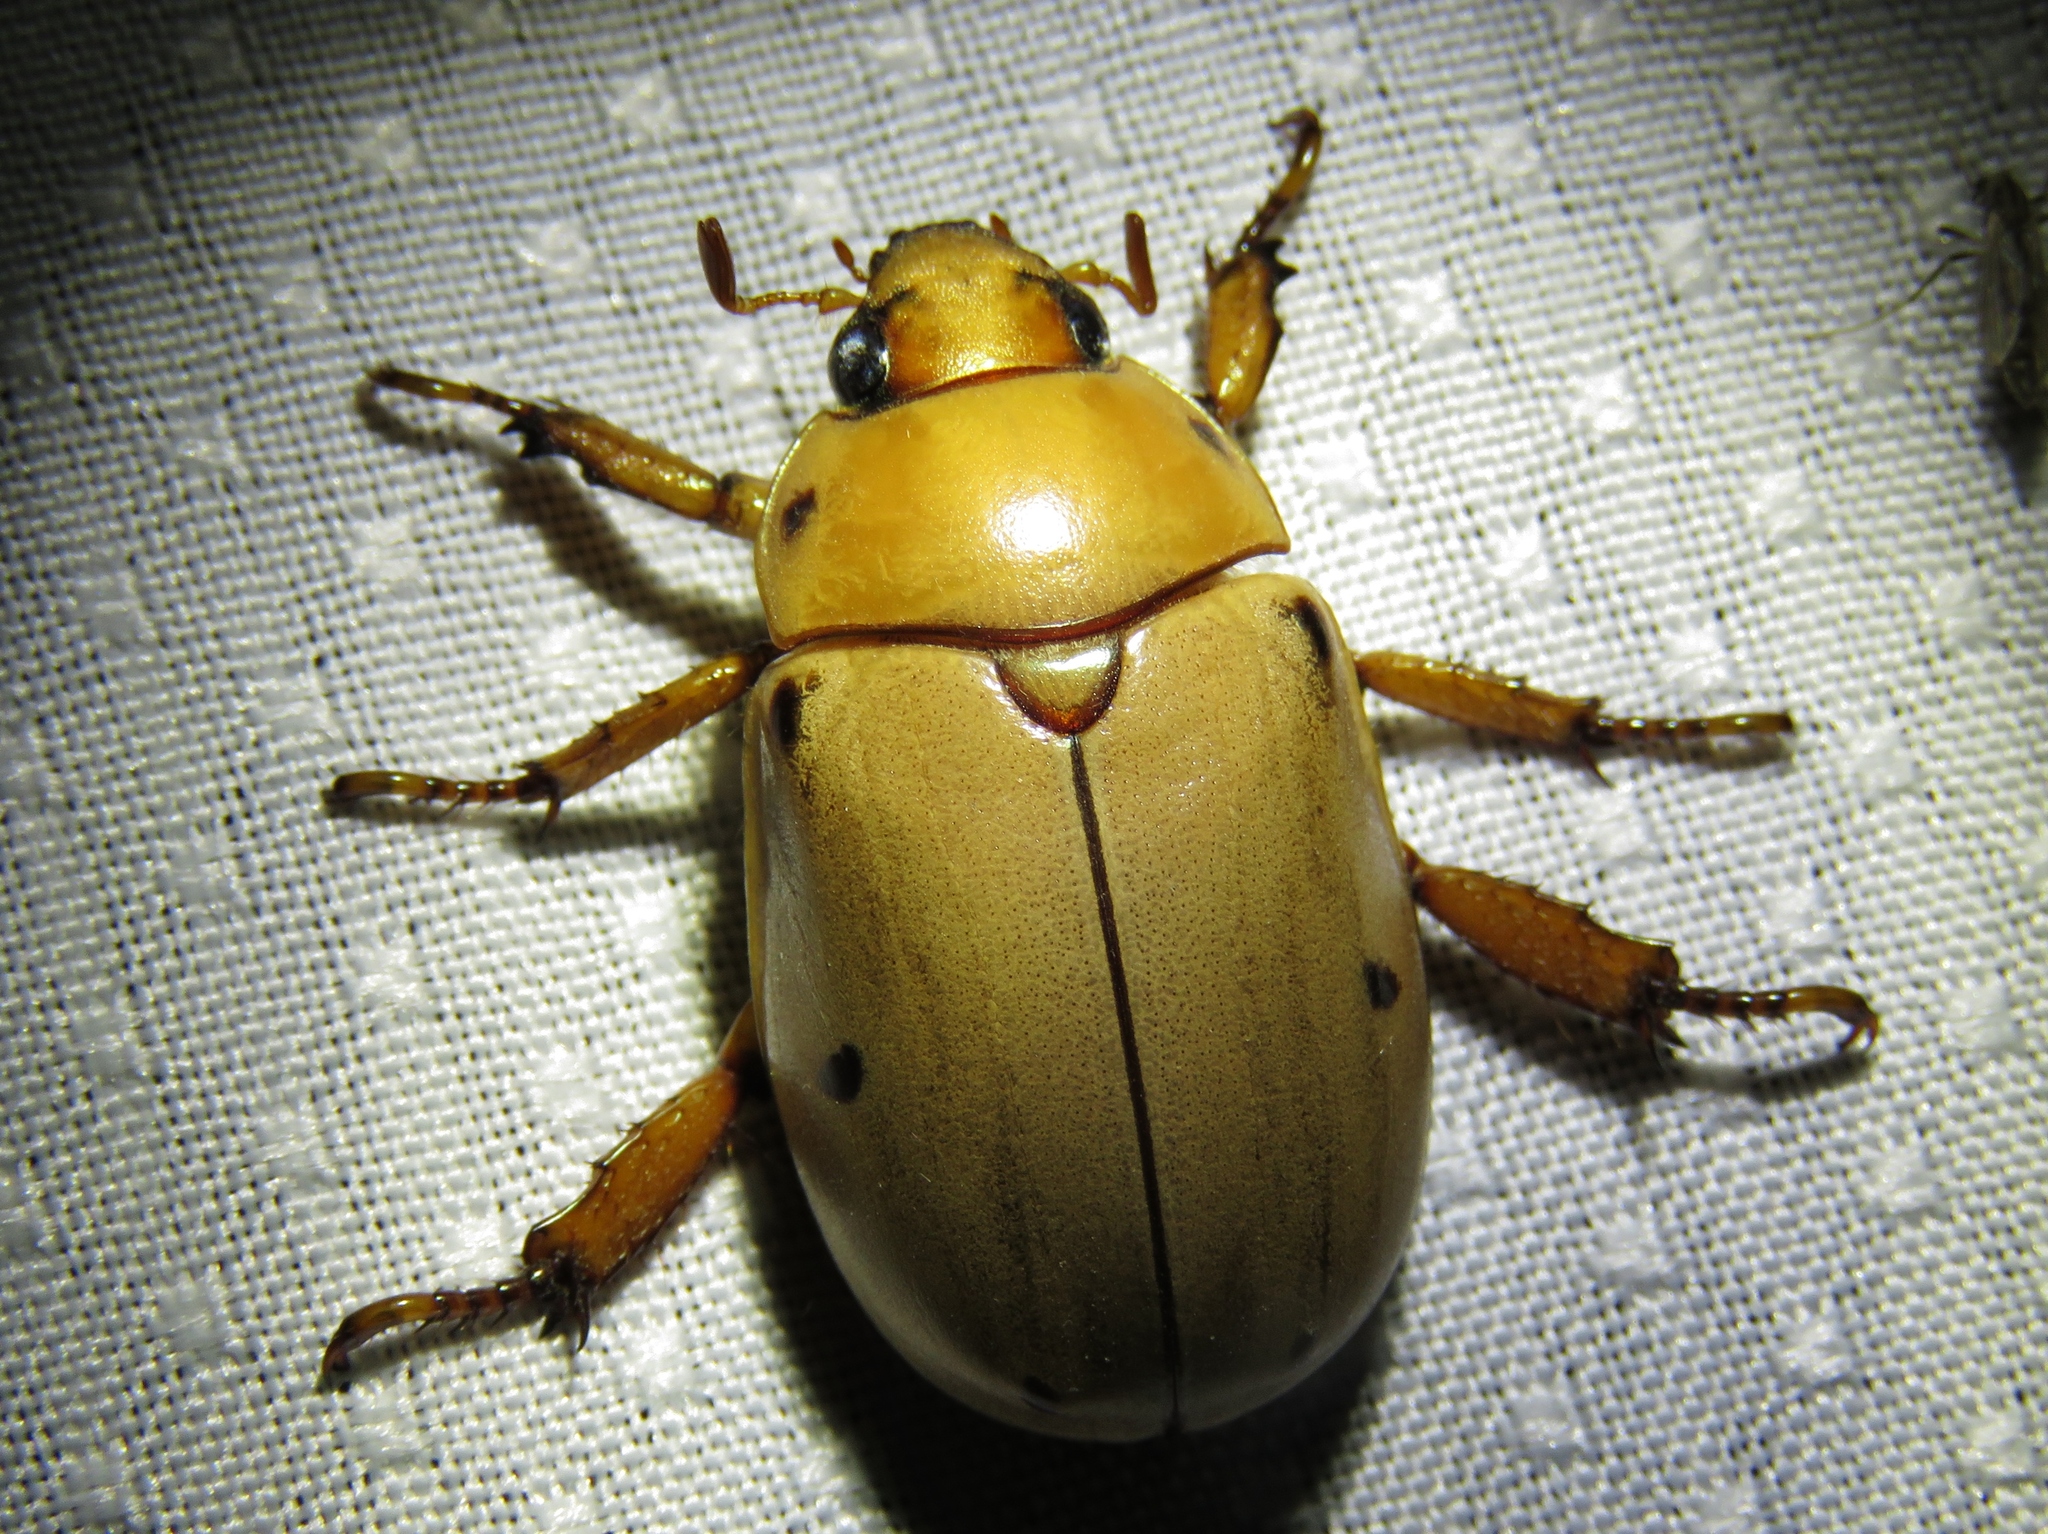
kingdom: Animalia
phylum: Arthropoda
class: Insecta
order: Coleoptera
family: Scarabaeidae
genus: Pelidnota
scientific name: Pelidnota punctata
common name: Grapevine beetle
